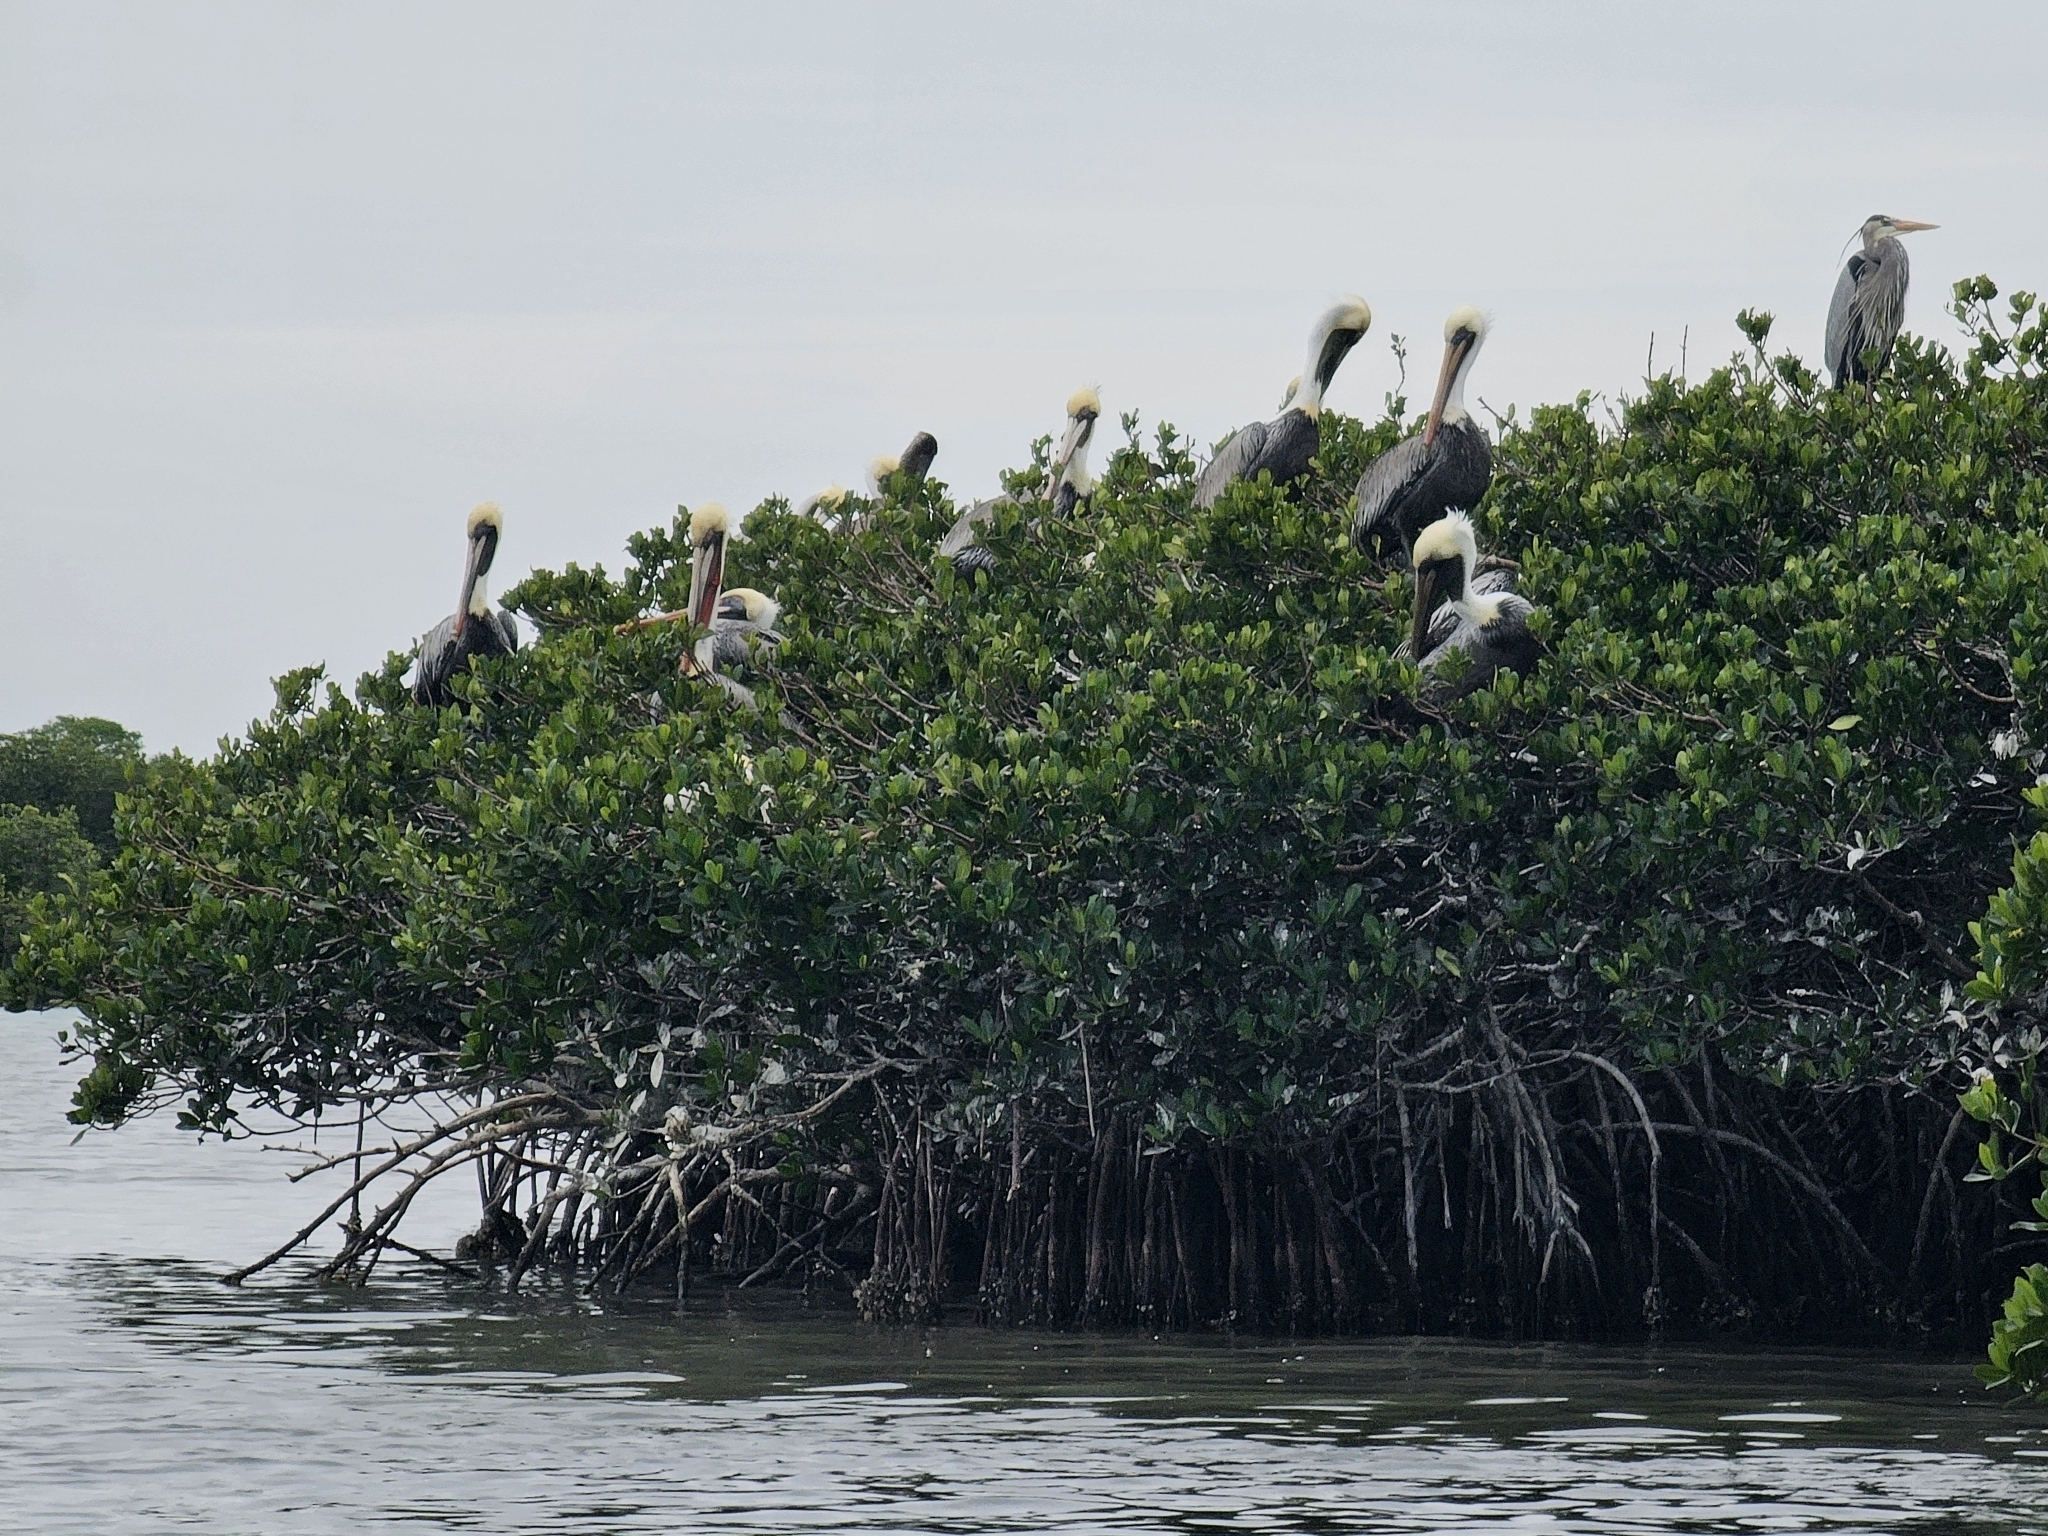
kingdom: Animalia
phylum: Chordata
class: Aves
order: Pelecaniformes
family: Pelecanidae
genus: Pelecanus
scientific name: Pelecanus occidentalis
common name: Brown pelican
